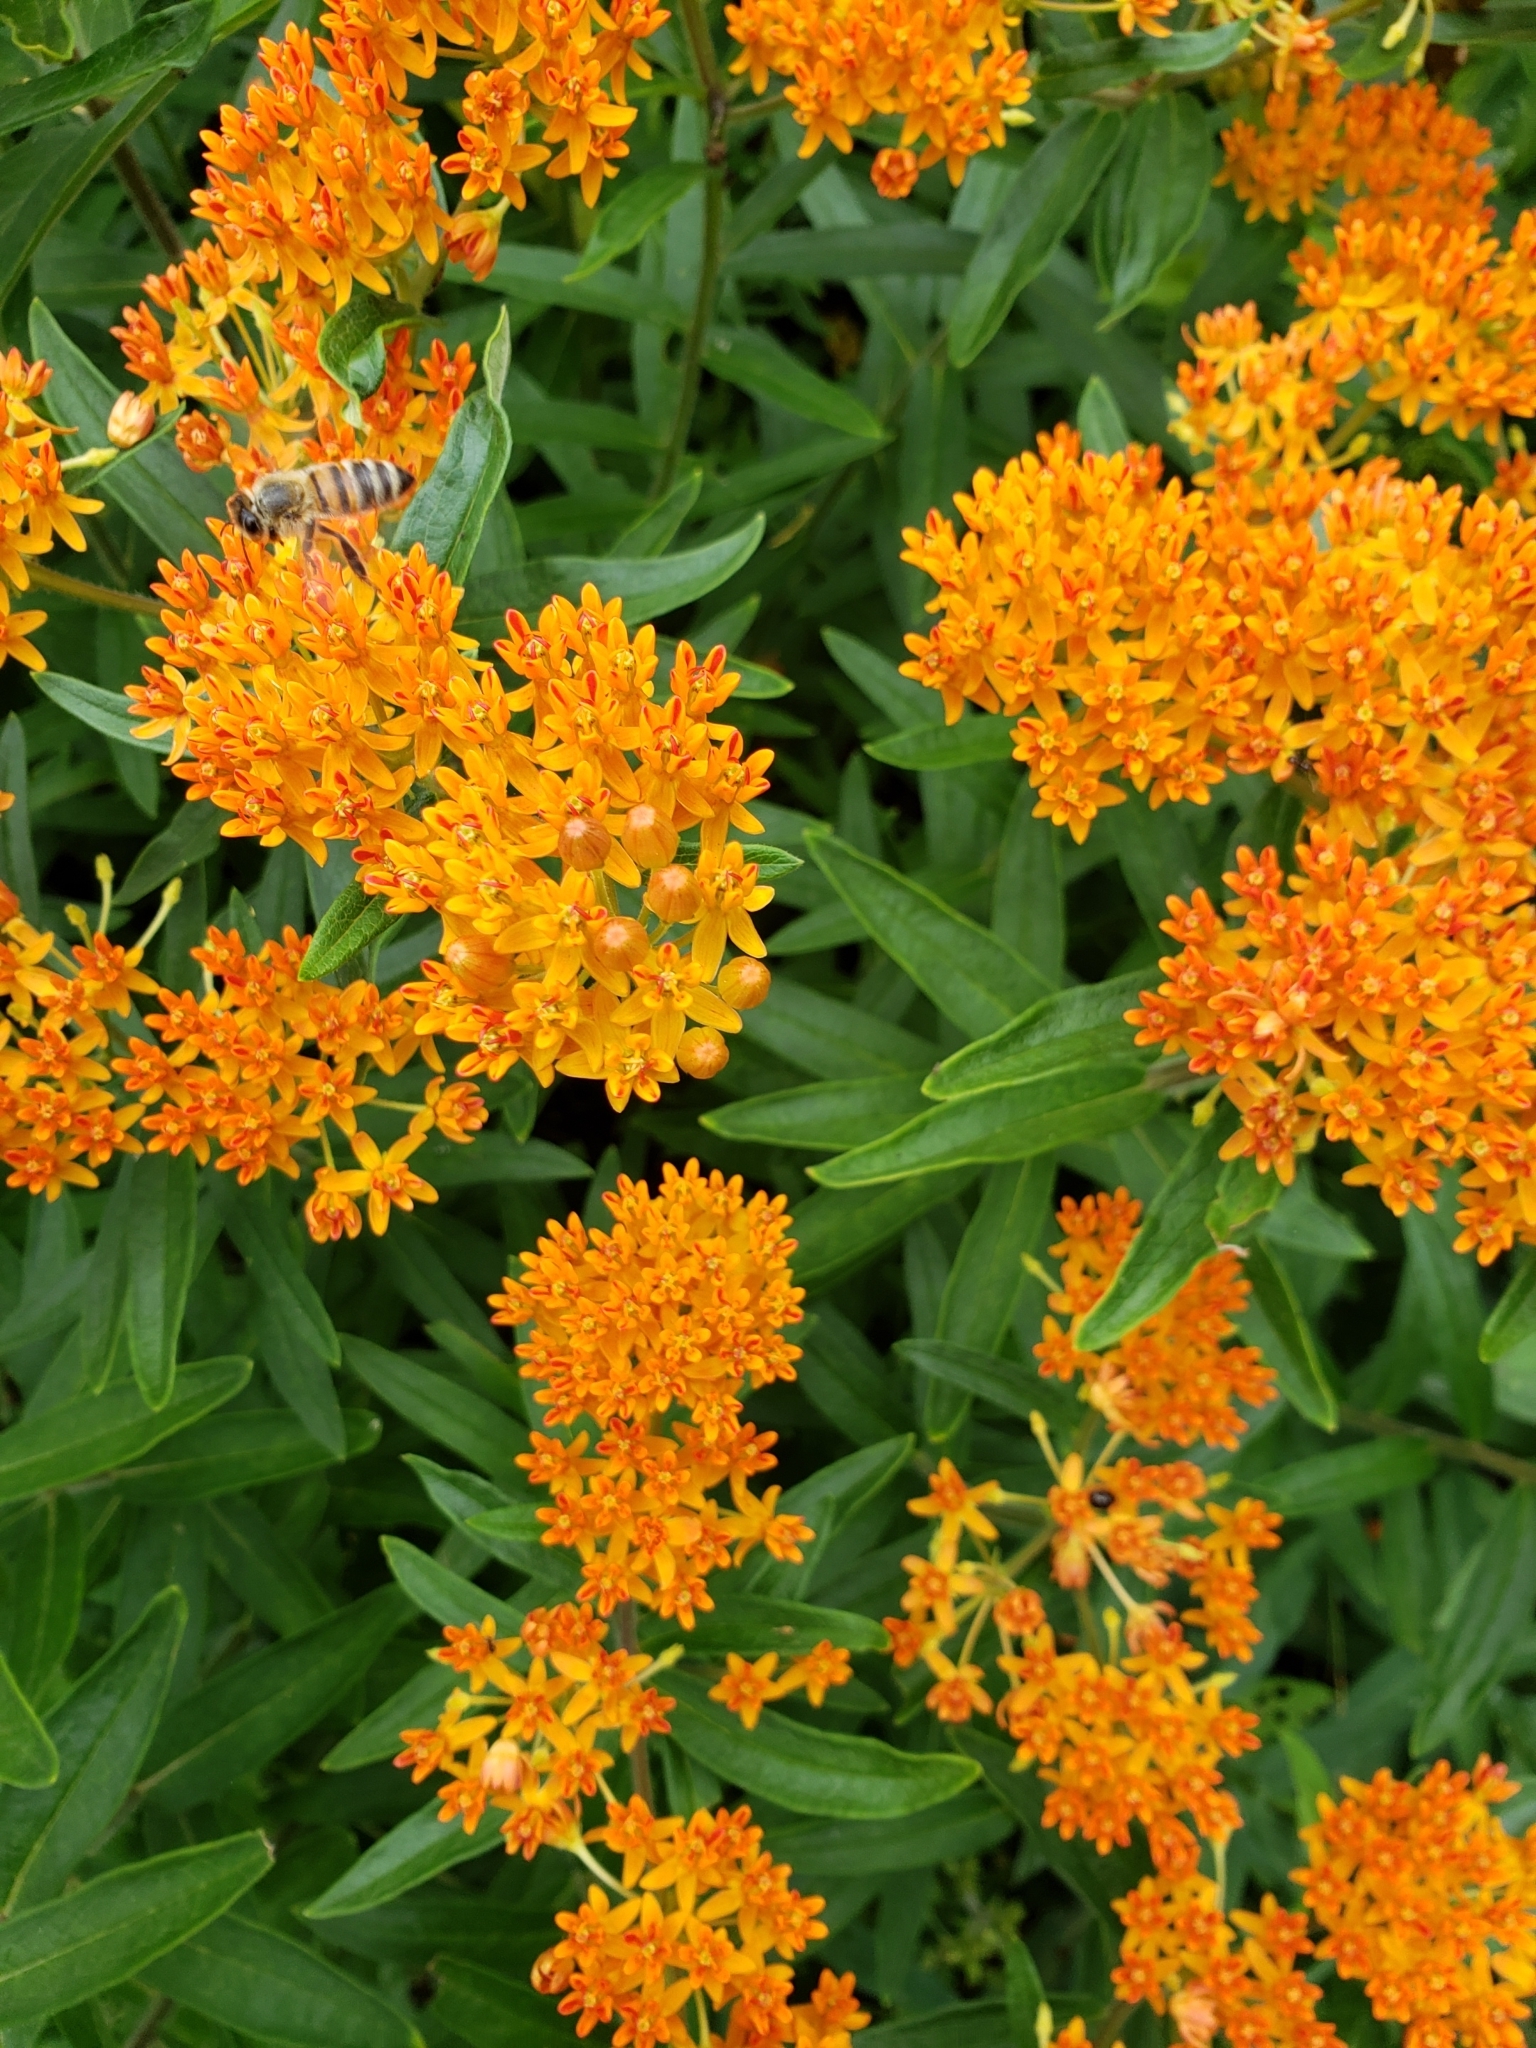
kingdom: Plantae
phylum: Tracheophyta
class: Magnoliopsida
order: Gentianales
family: Apocynaceae
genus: Asclepias
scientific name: Asclepias tuberosa
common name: Butterfly milkweed
